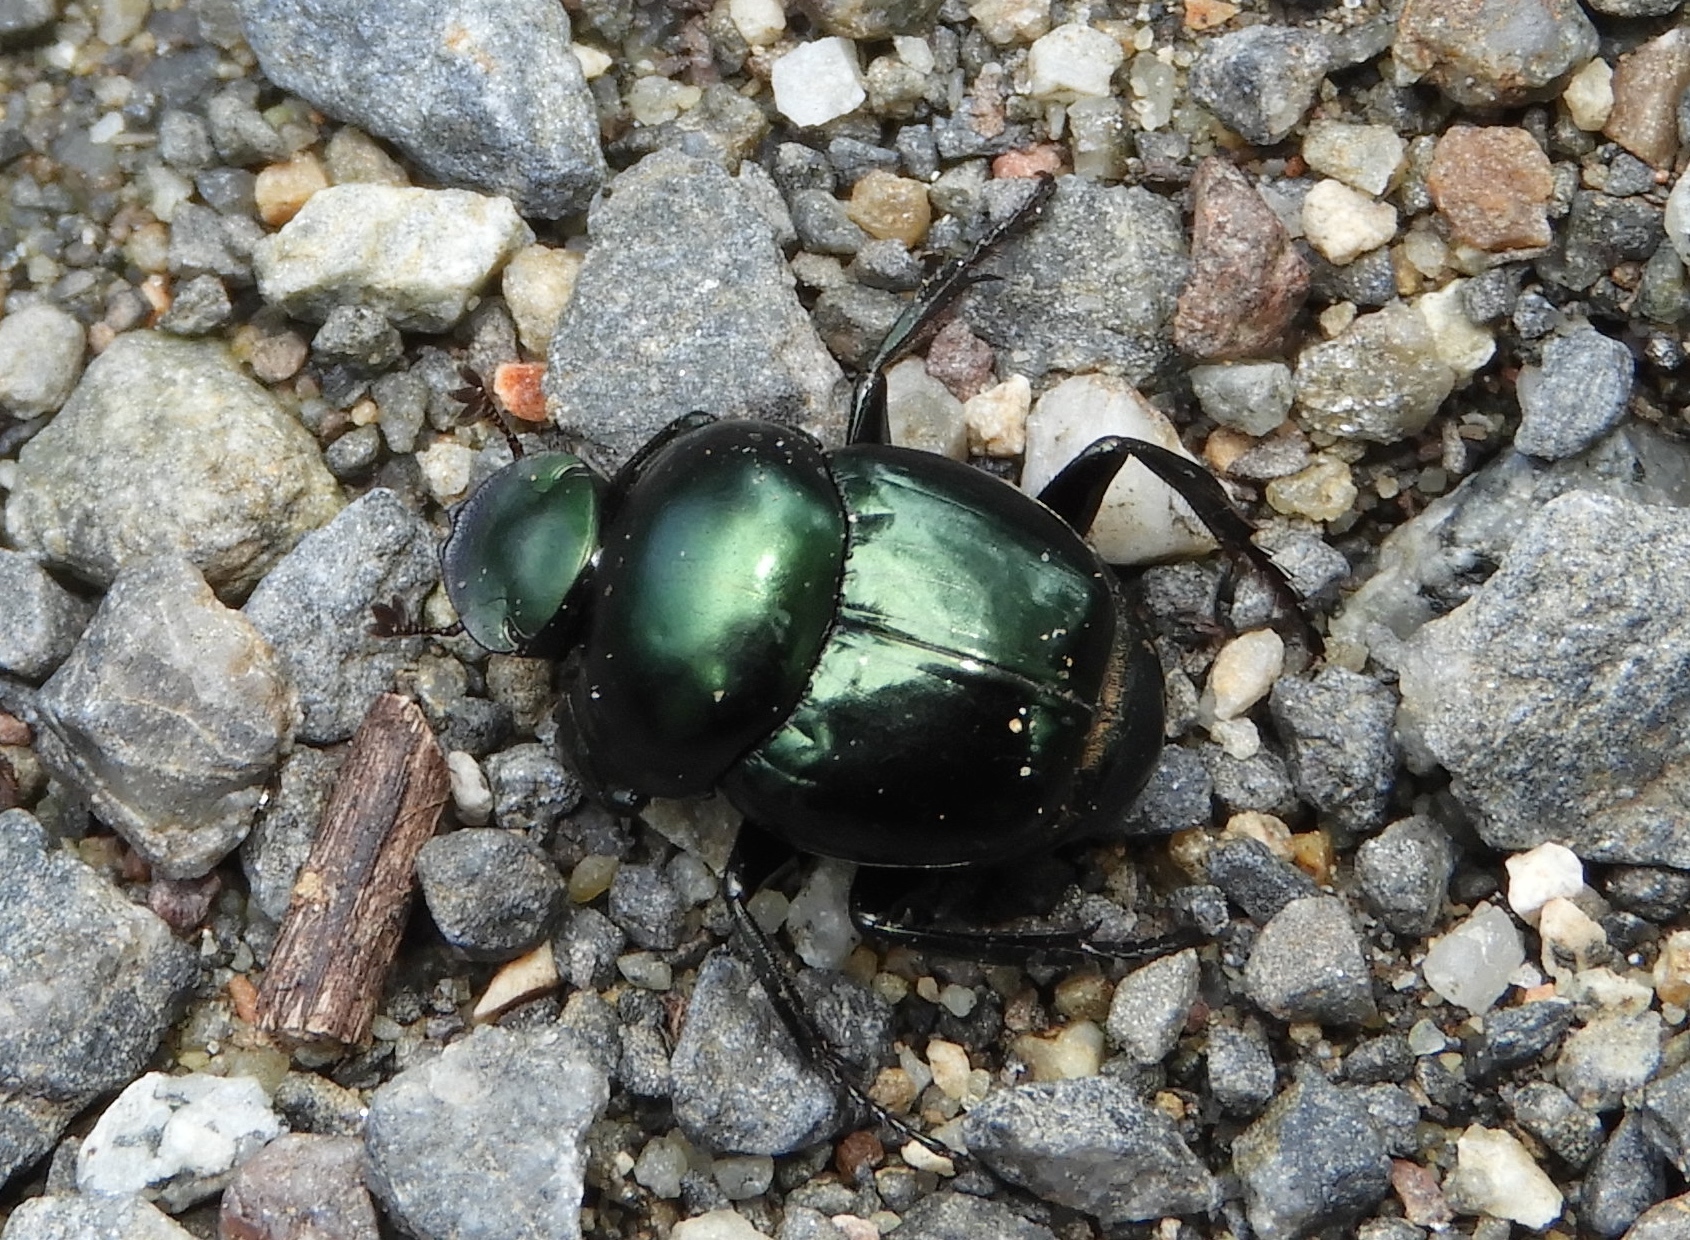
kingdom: Animalia
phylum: Arthropoda
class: Insecta
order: Coleoptera
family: Scarabaeidae
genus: Canthon
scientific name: Canthon
